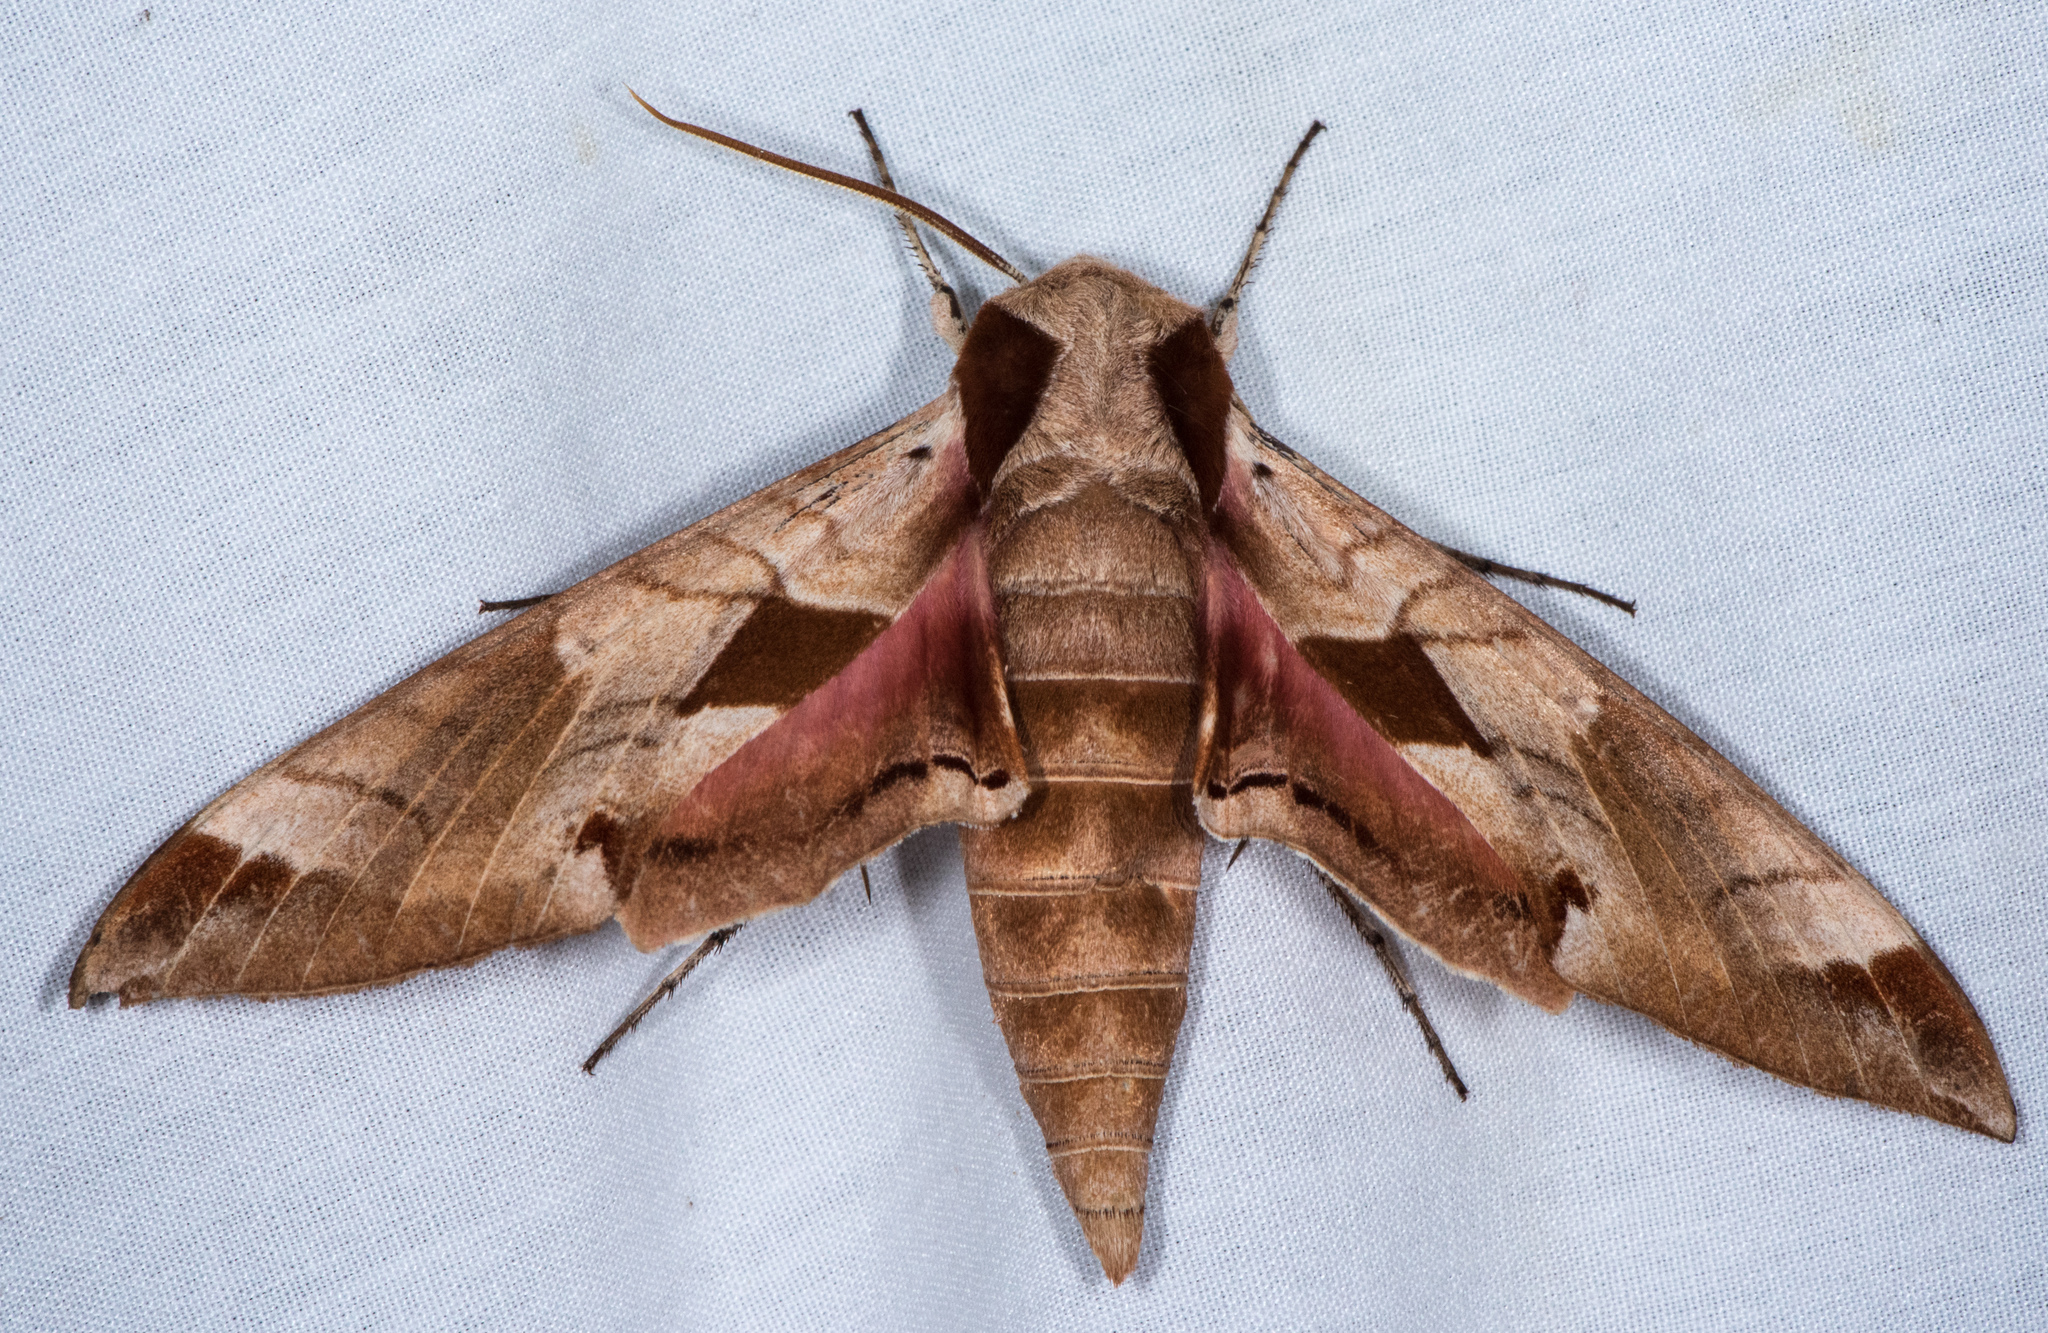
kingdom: Animalia
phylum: Arthropoda
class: Insecta
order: Lepidoptera
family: Sphingidae
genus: Eumorpha
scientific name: Eumorpha achemon
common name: Achemon sphinx
